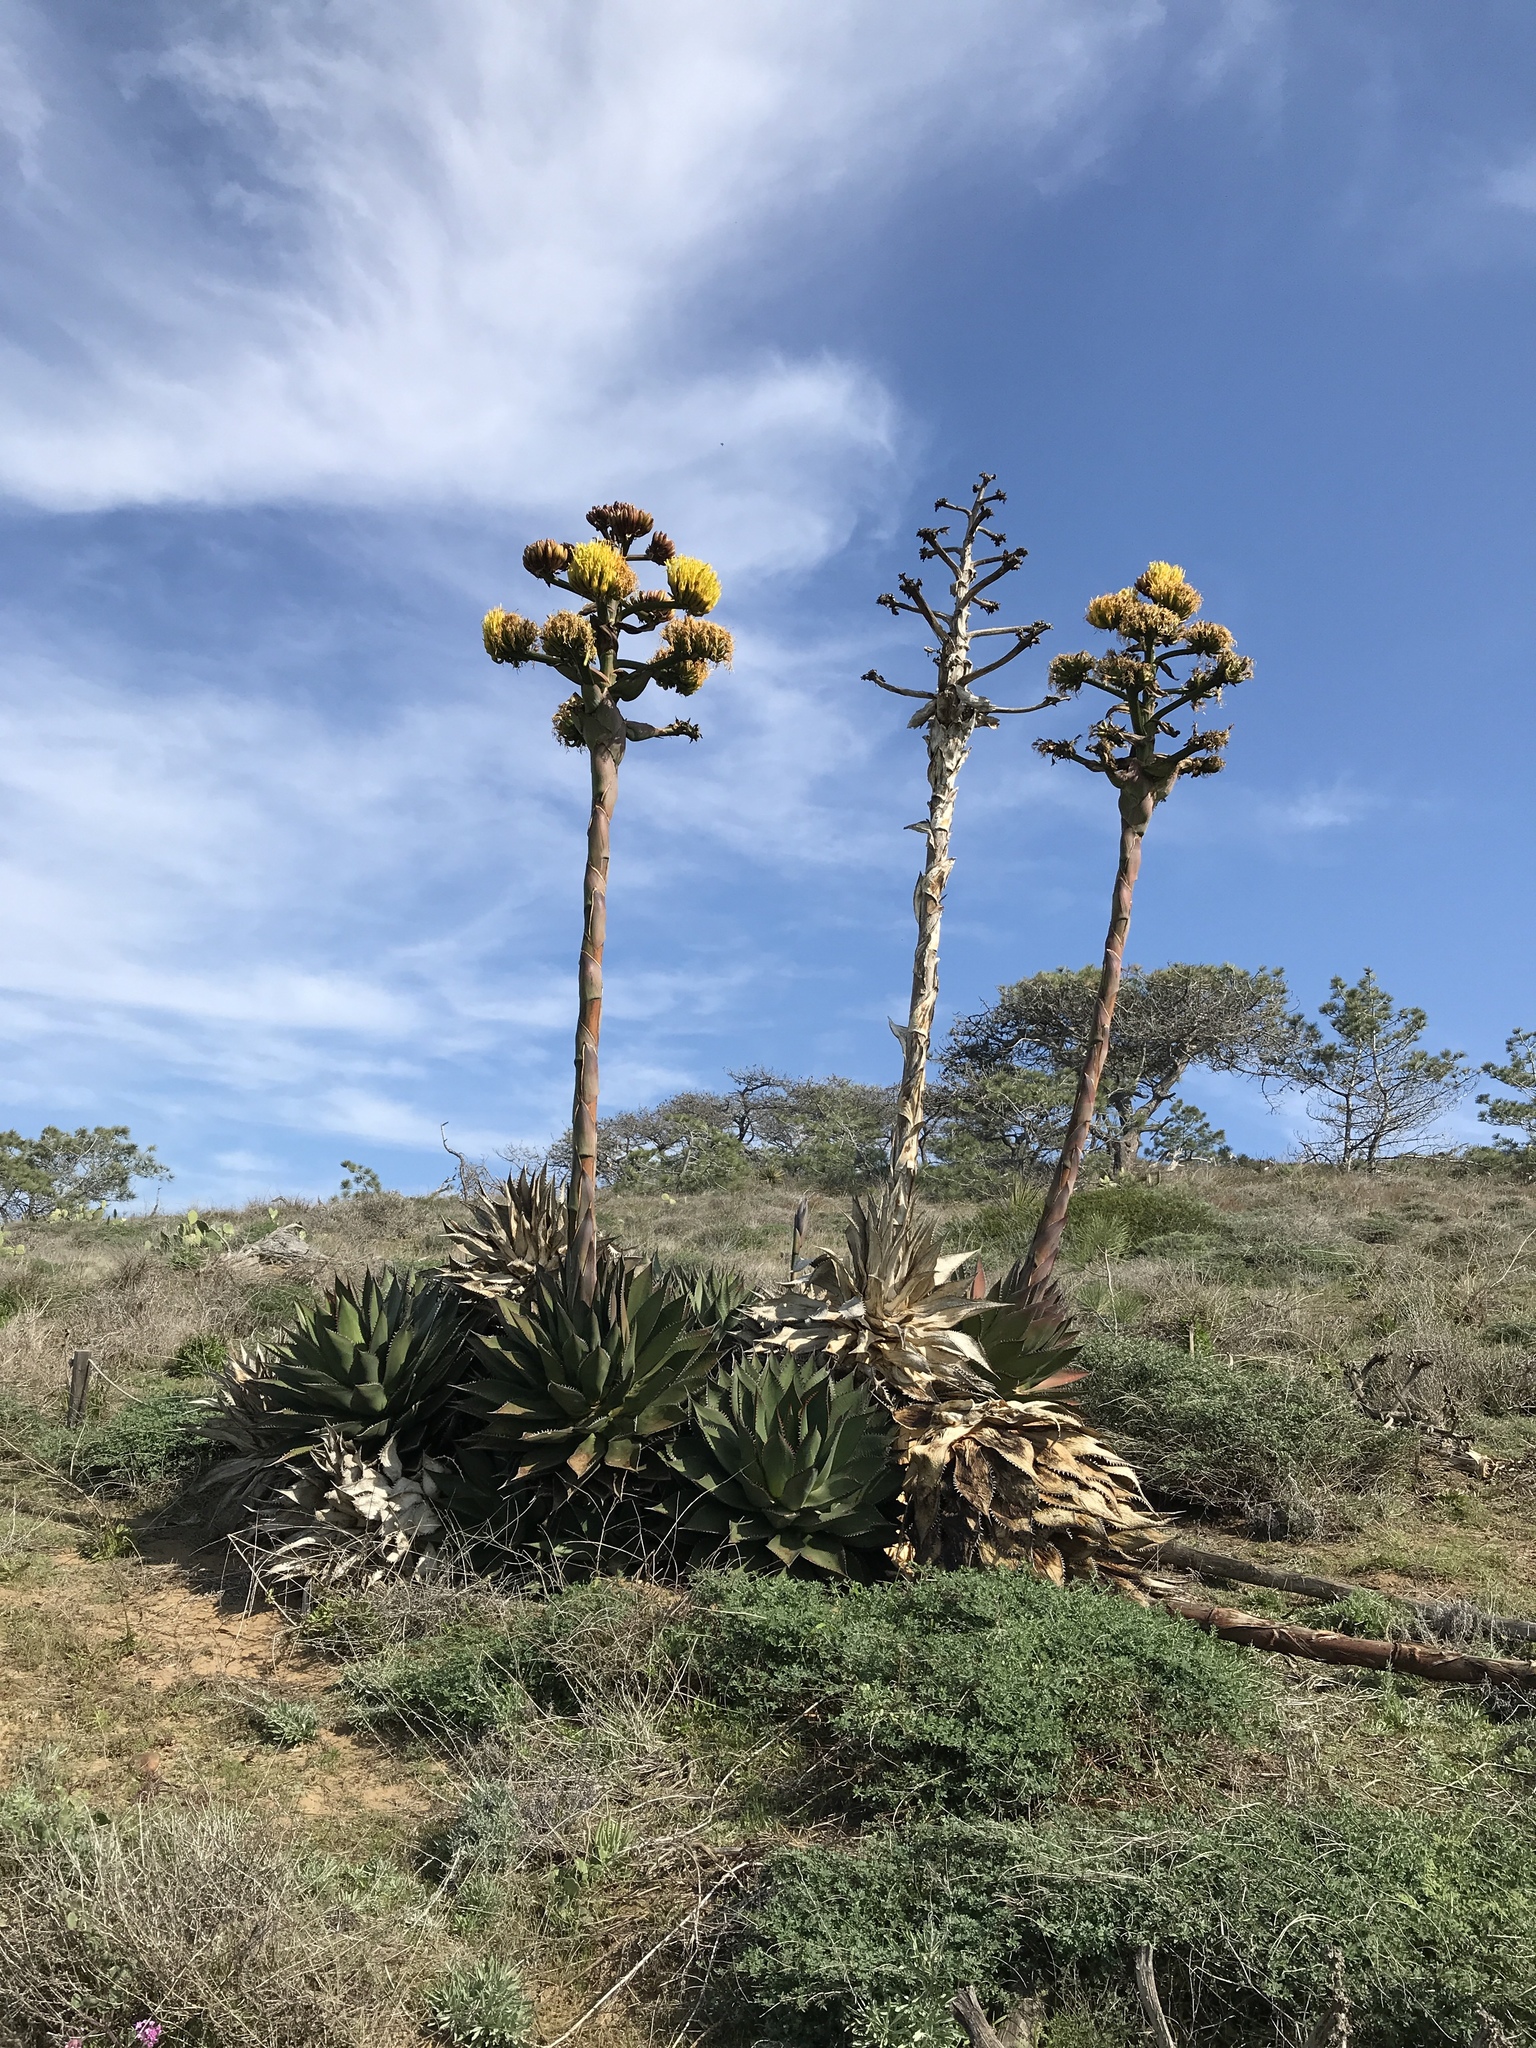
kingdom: Plantae
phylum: Tracheophyta
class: Liliopsida
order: Asparagales
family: Asparagaceae
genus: Agave
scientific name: Agave shawii
